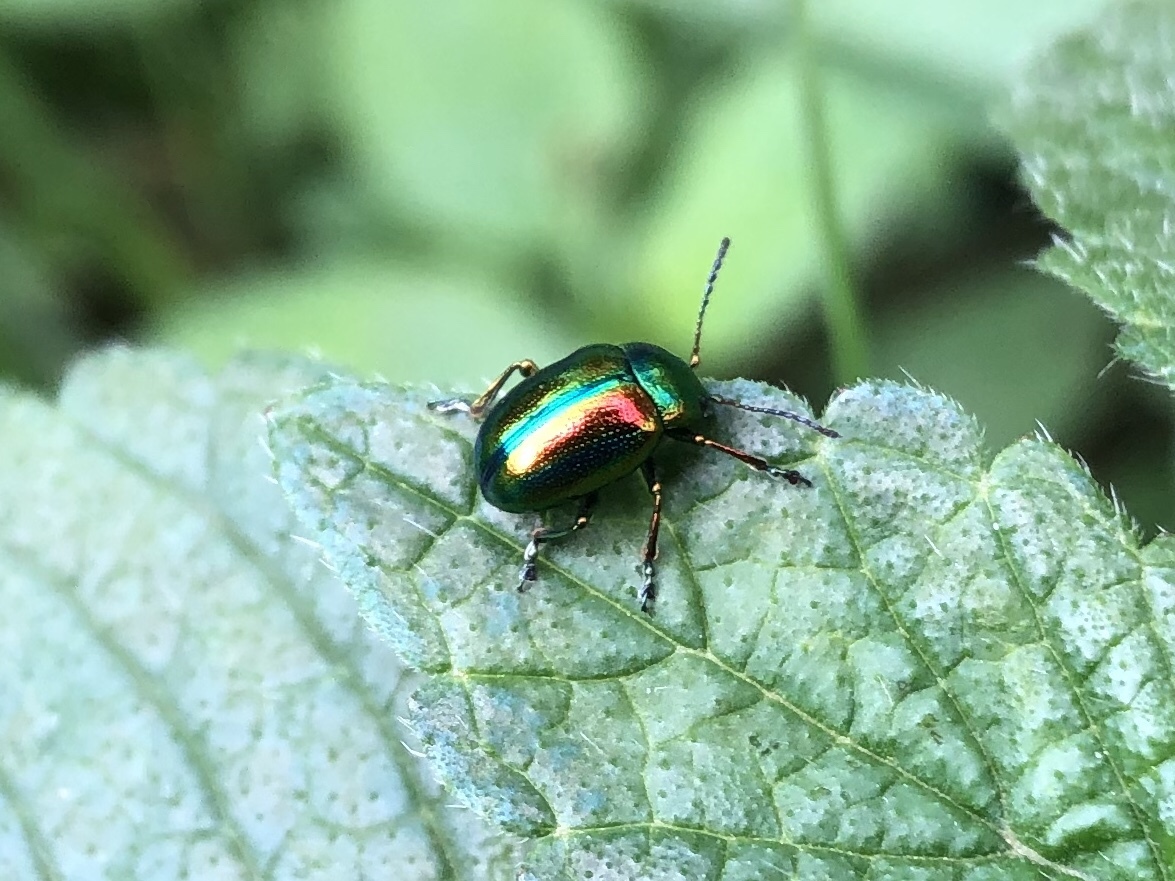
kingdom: Animalia
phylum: Arthropoda
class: Insecta
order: Coleoptera
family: Chrysomelidae
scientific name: Chrysomelidae
